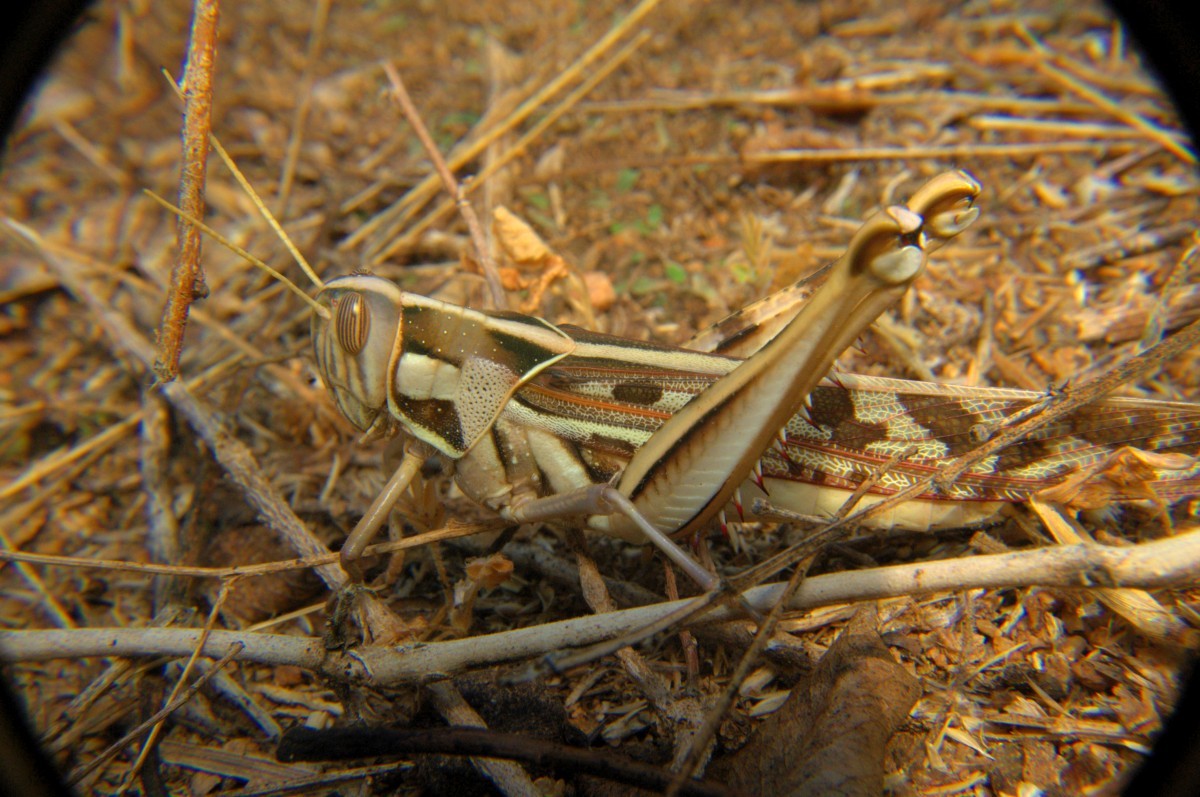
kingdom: Animalia
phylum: Arthropoda
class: Insecta
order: Orthoptera
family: Acrididae
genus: Cyrtacanthacris
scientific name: Cyrtacanthacris tatarica
